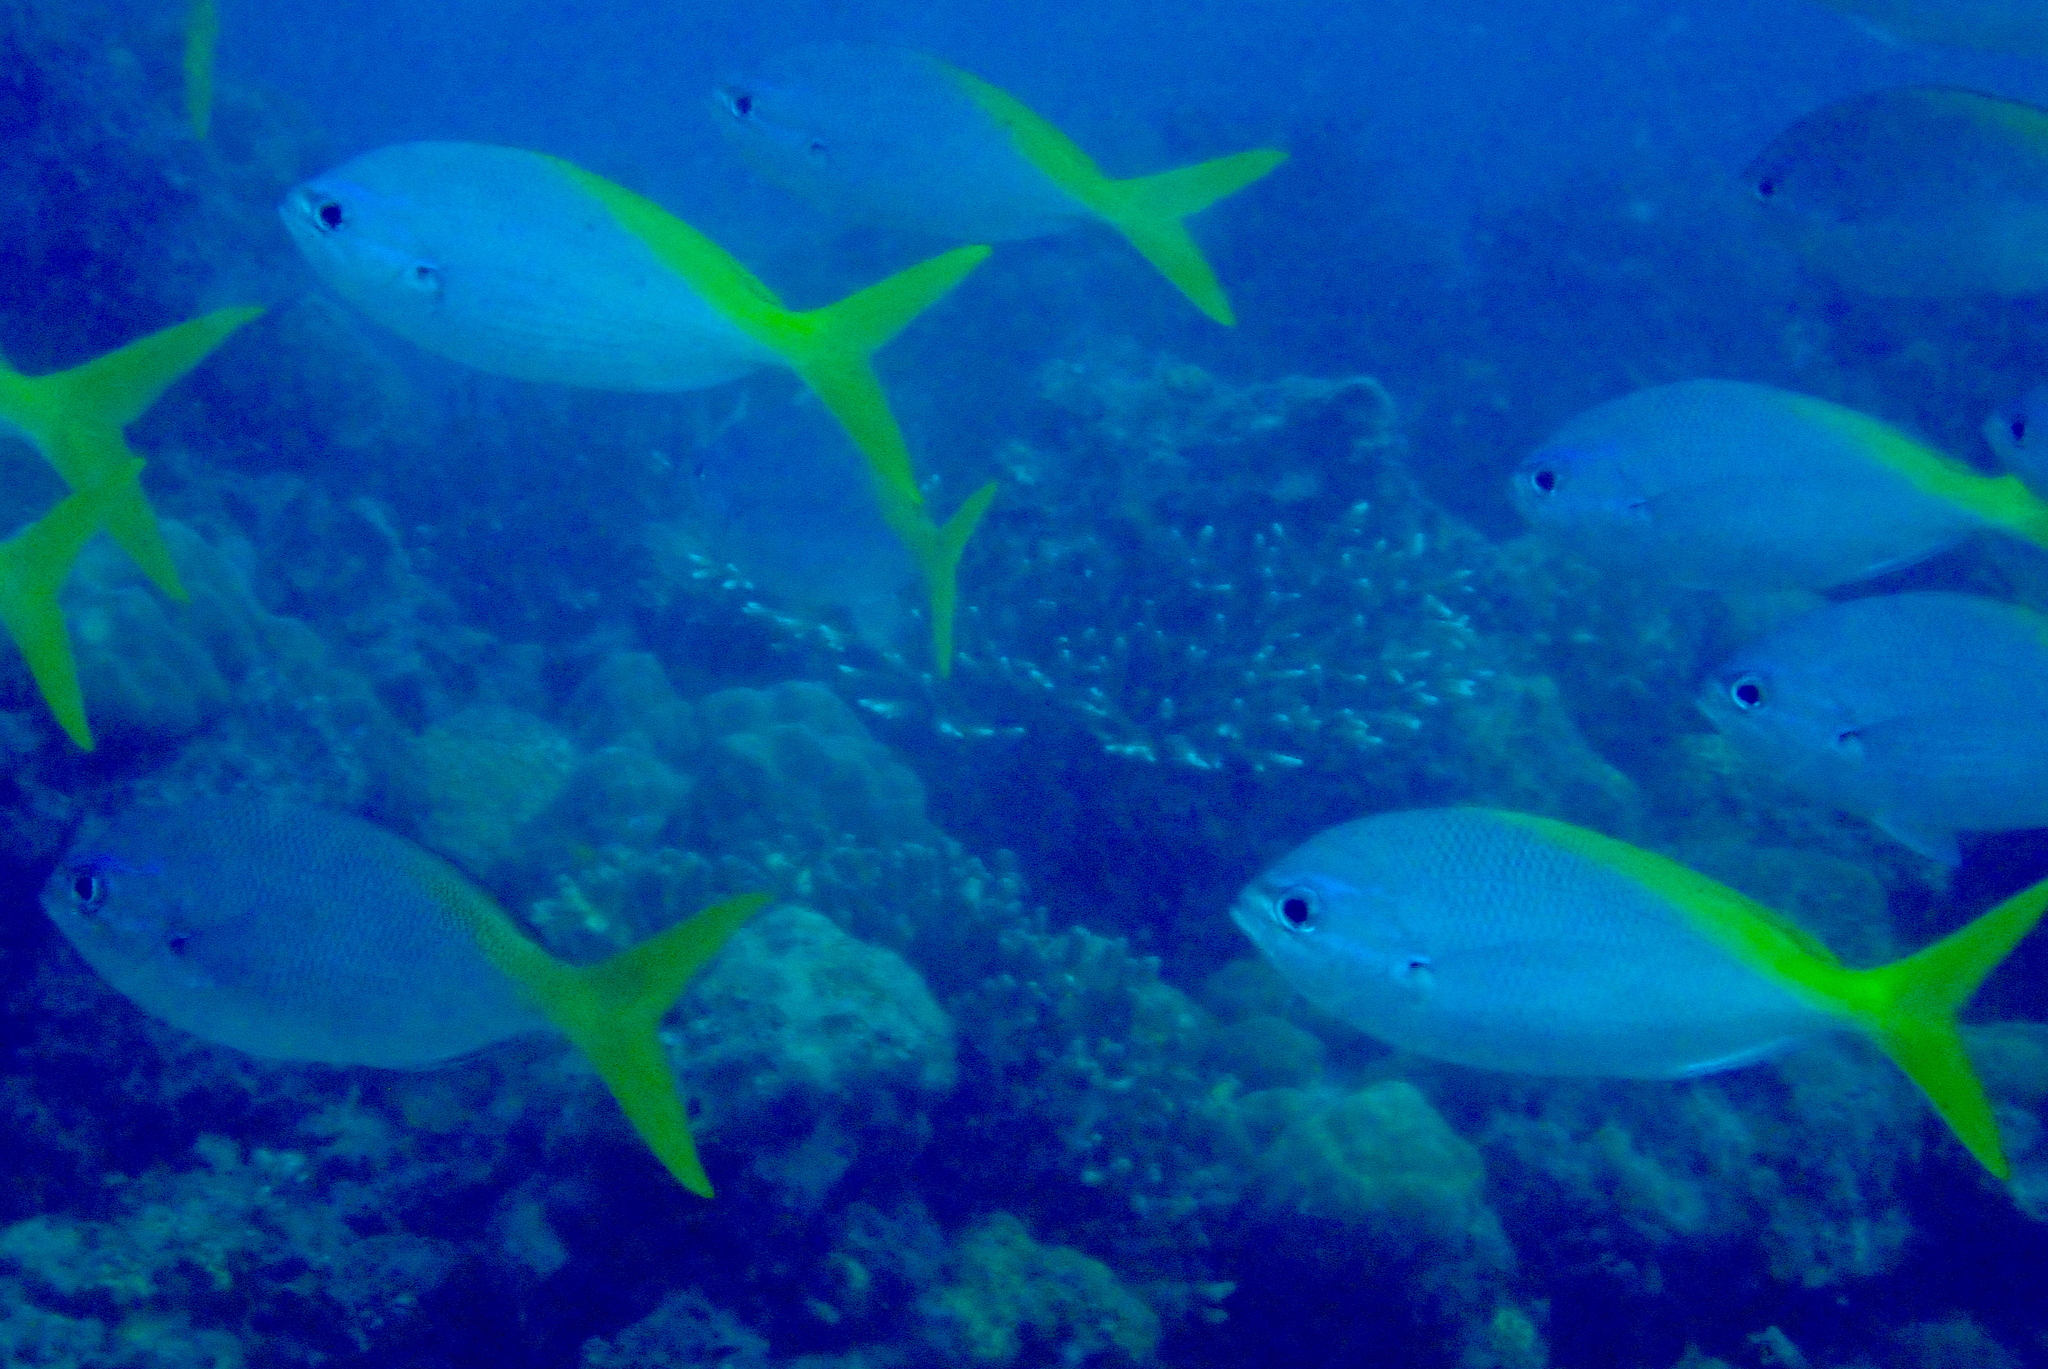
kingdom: Animalia
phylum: Chordata
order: Perciformes
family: Caesionidae
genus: Caesio
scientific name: Caesio cuning
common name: Red-bellied fusilier
